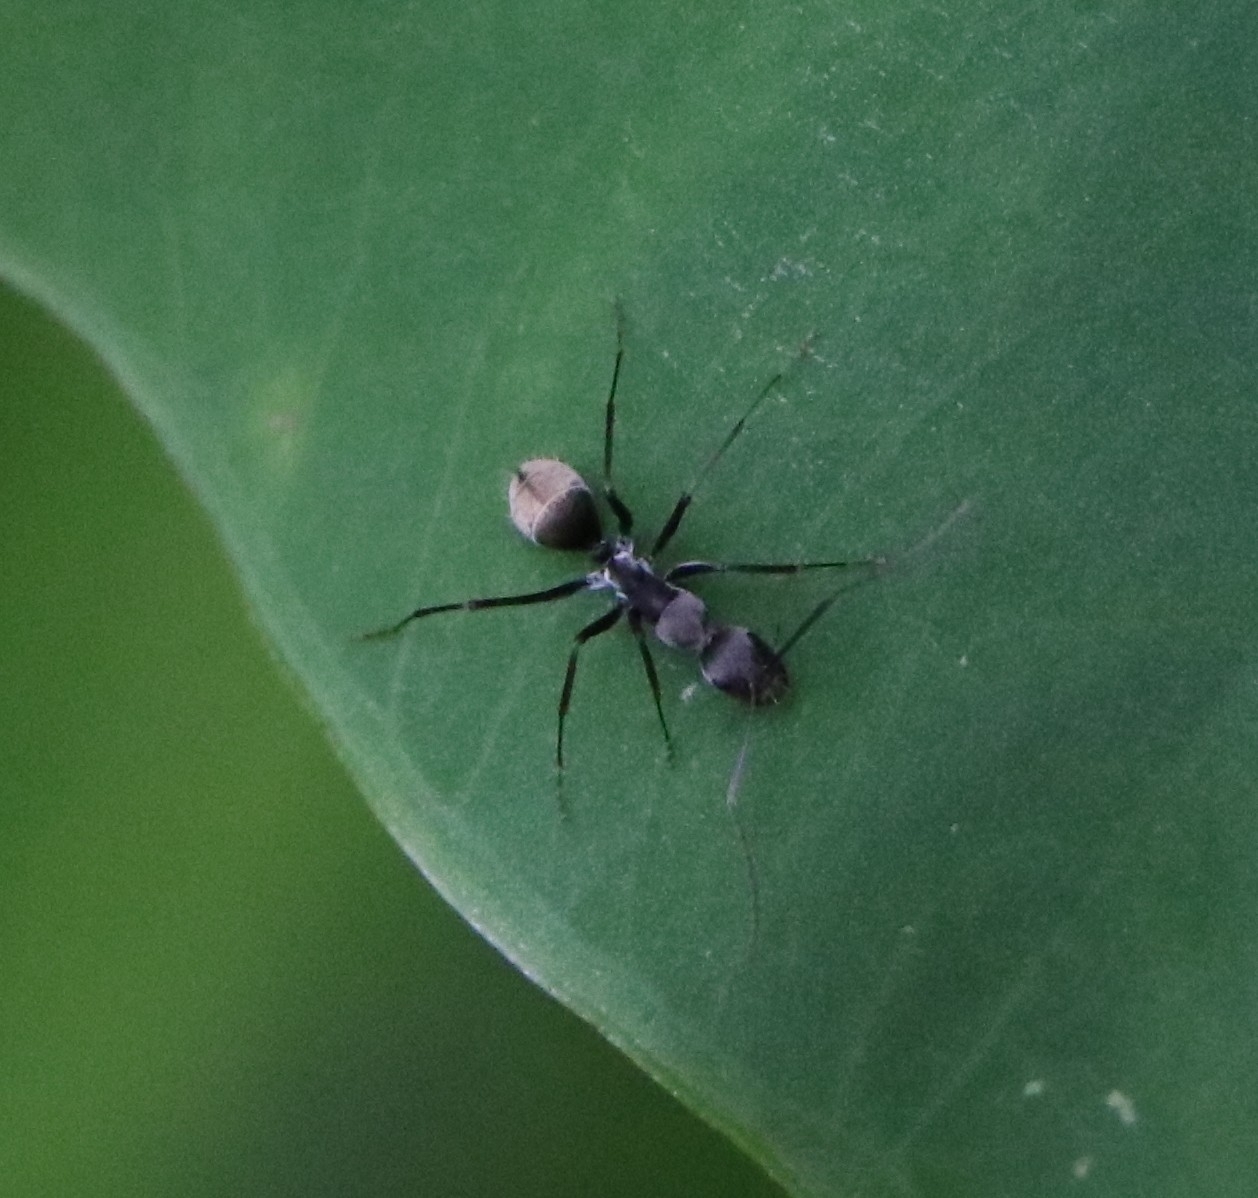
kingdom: Animalia
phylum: Arthropoda
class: Insecta
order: Hymenoptera
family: Formicidae
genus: Camponotus
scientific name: Camponotus parius
